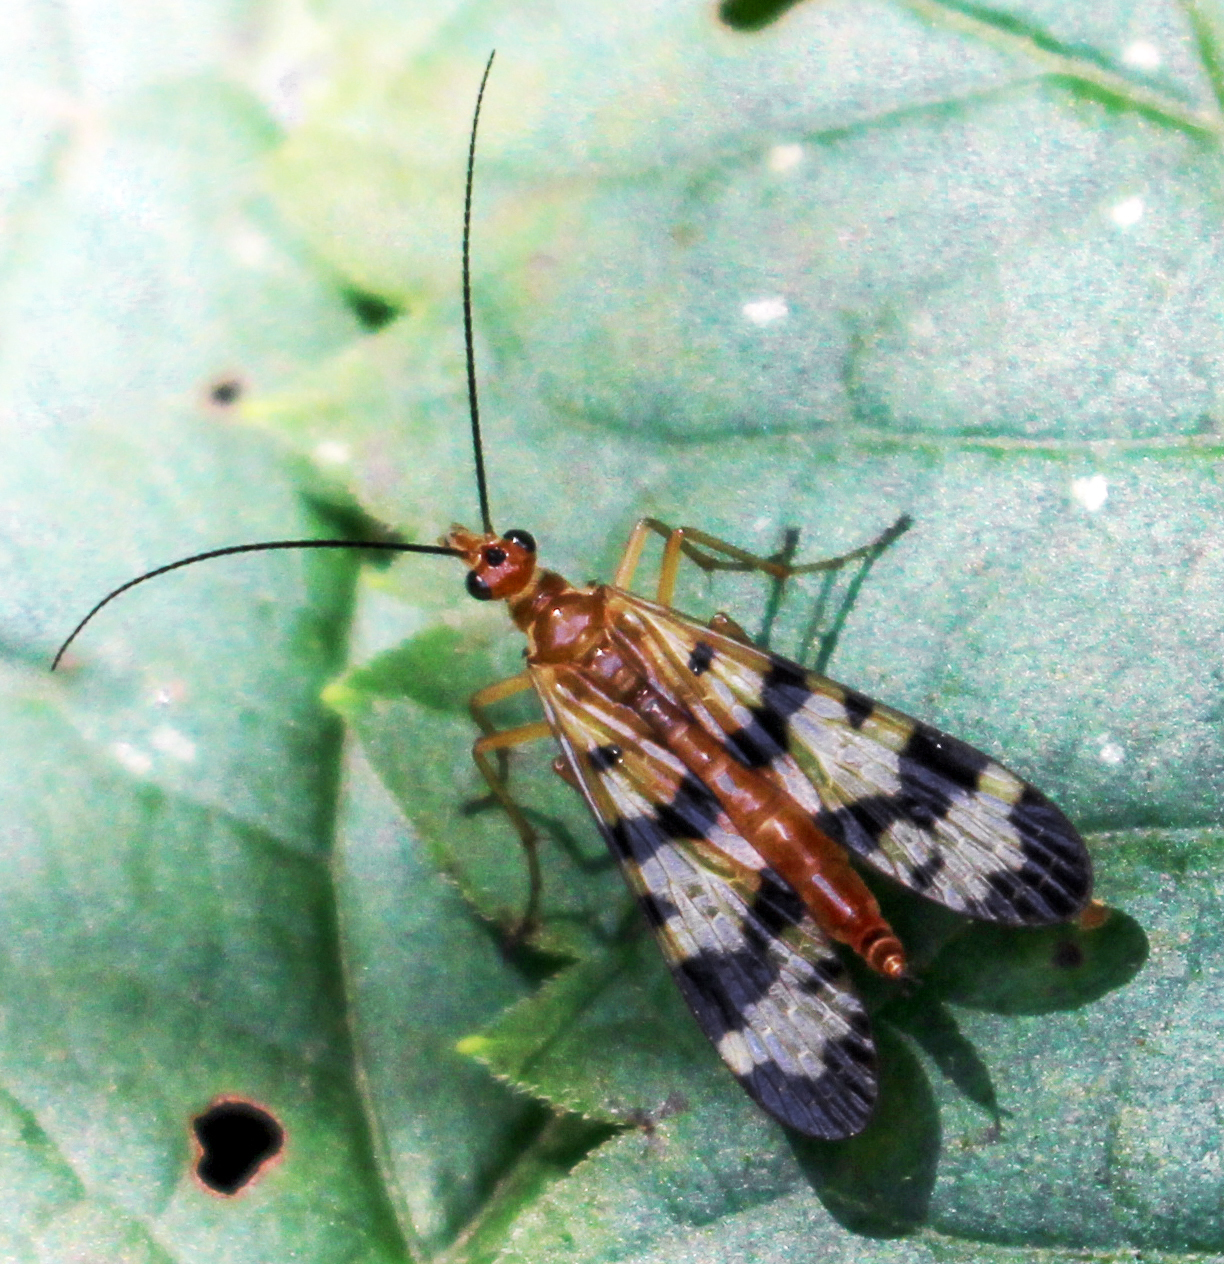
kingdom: Animalia
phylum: Arthropoda
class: Insecta
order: Mecoptera
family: Panorpidae
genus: Panorpa
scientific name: Panorpa subfurcata
